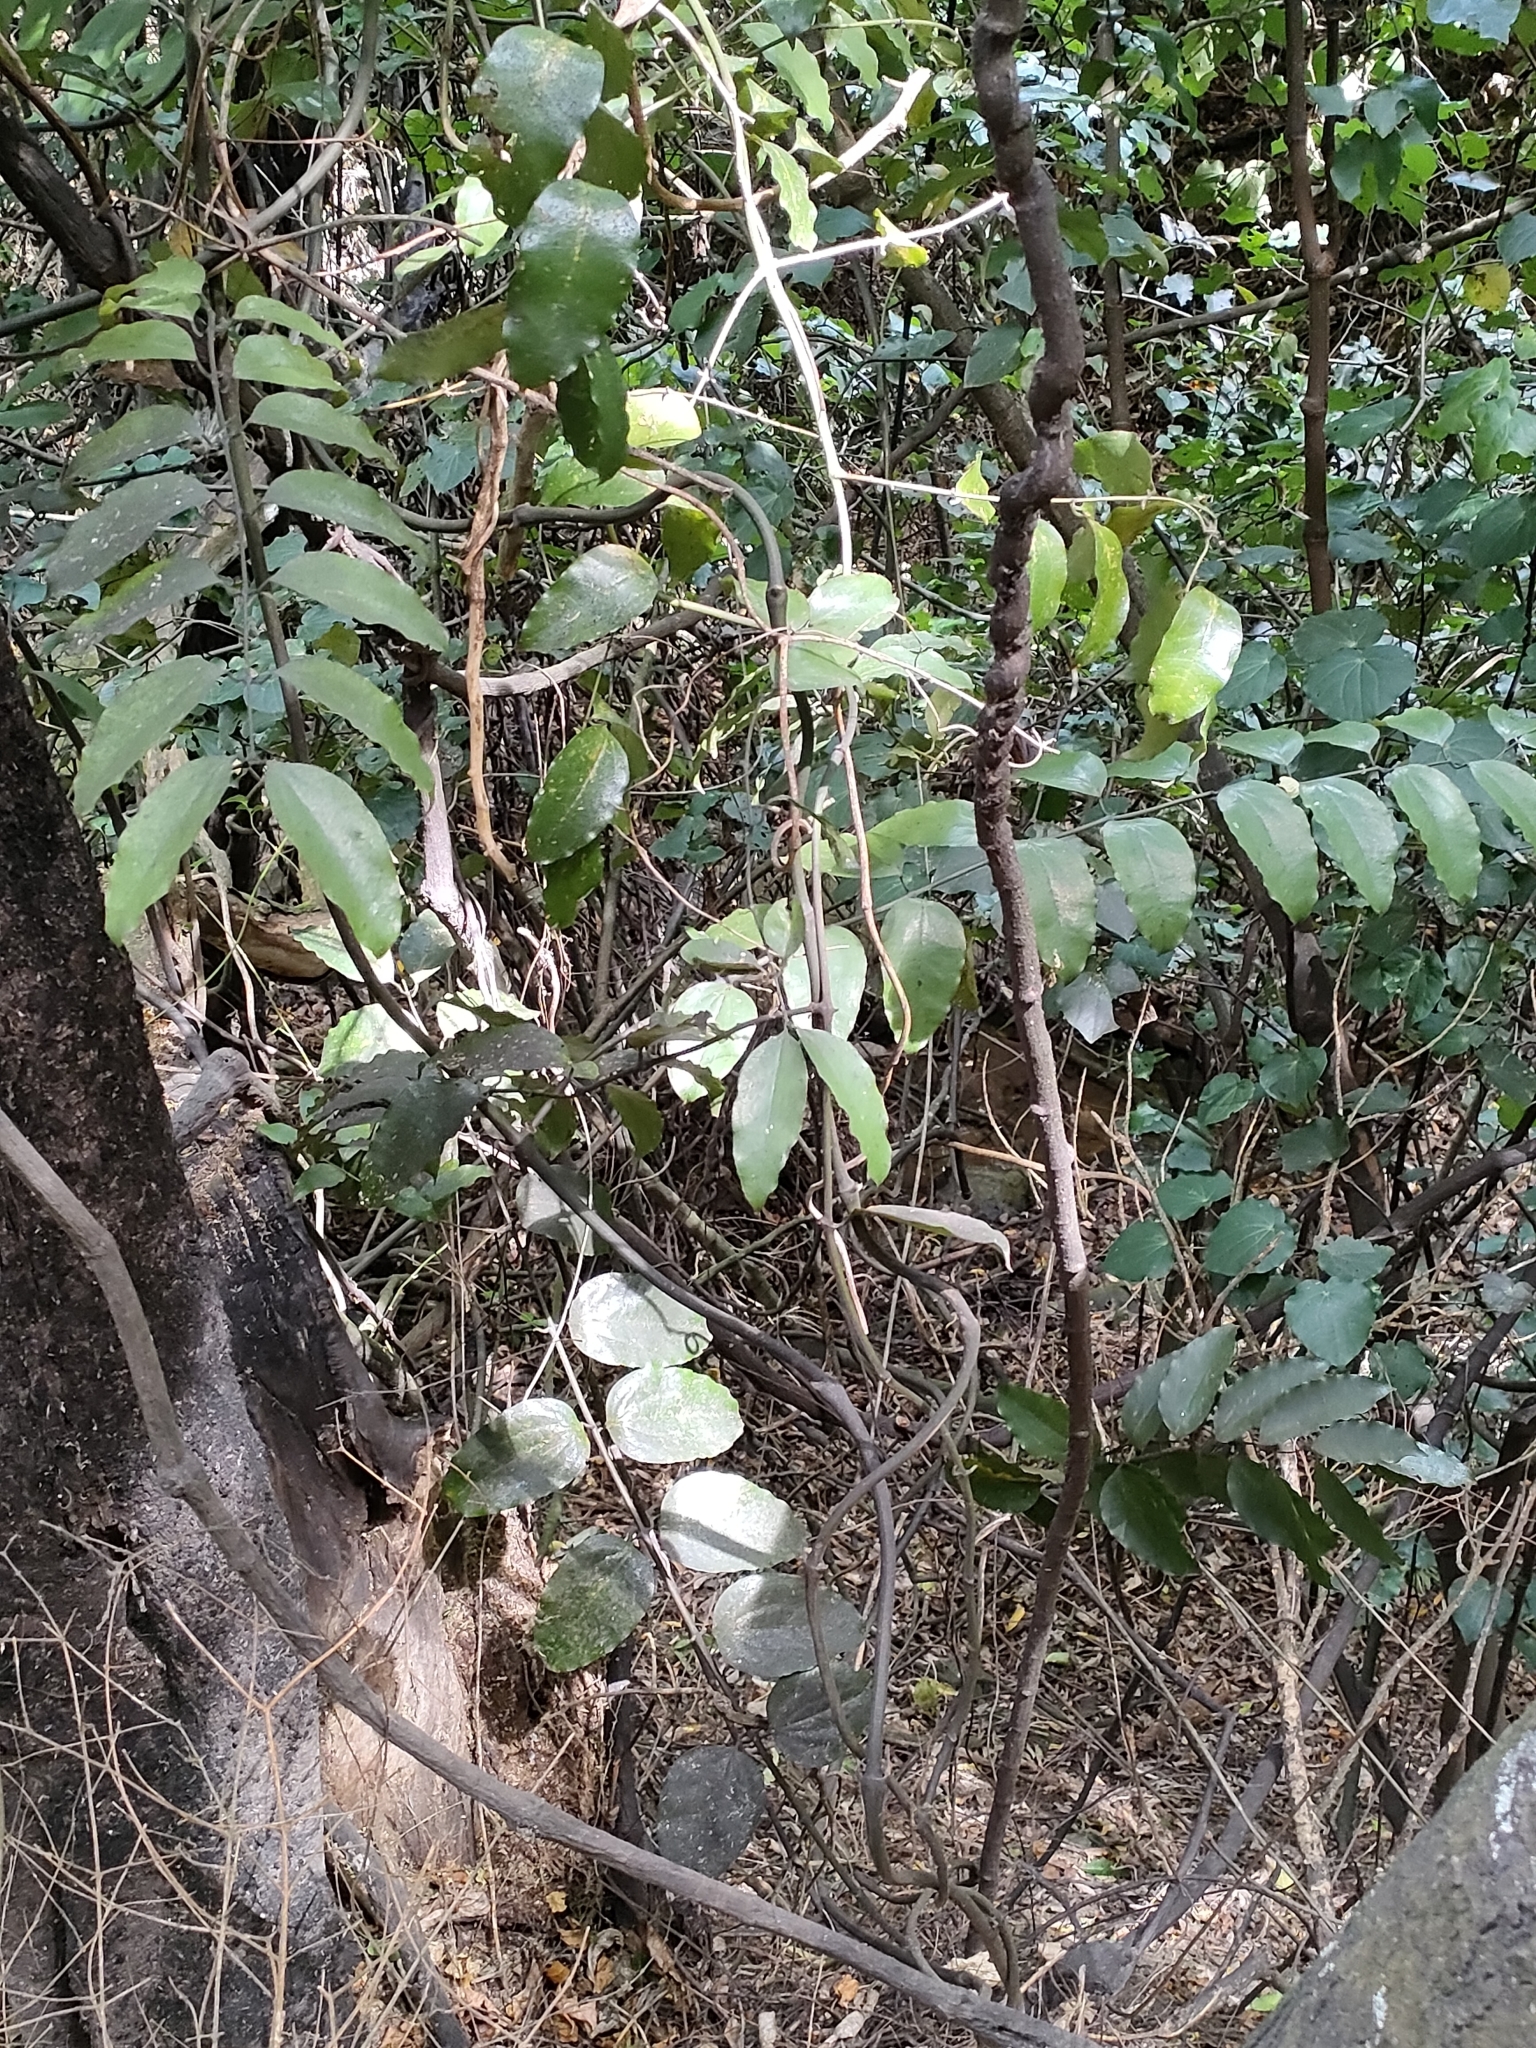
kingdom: Plantae
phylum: Tracheophyta
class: Liliopsida
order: Liliales
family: Ripogonaceae
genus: Ripogonum
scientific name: Ripogonum scandens
